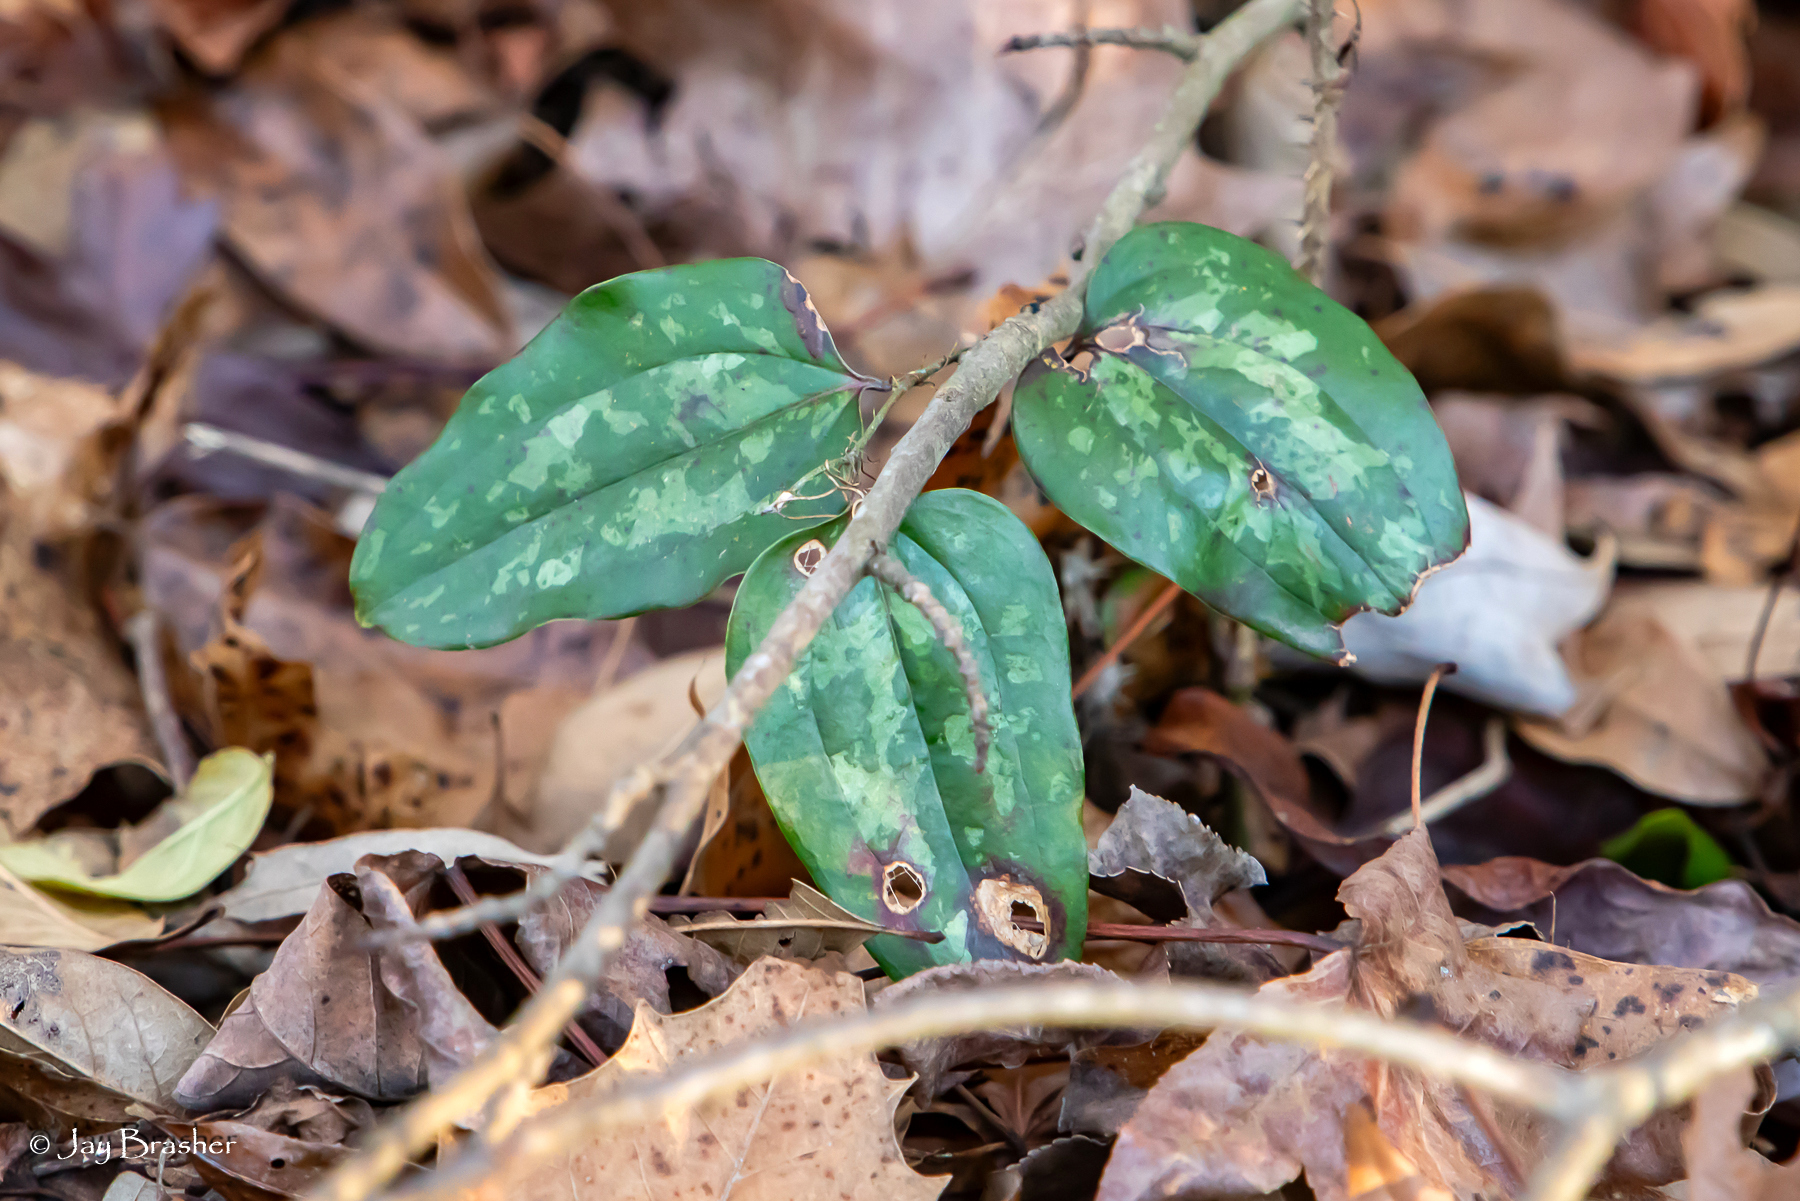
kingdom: Plantae
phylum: Tracheophyta
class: Liliopsida
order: Liliales
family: Smilacaceae
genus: Smilax
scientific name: Smilax glauca
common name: Cat greenbrier
